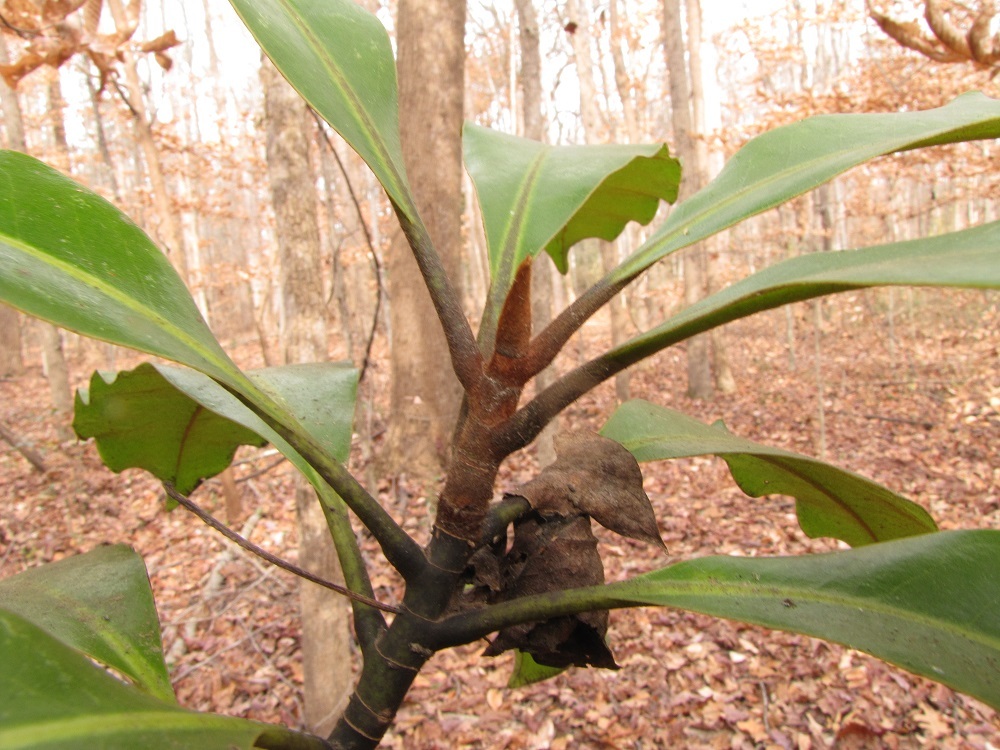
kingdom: Plantae
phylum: Tracheophyta
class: Magnoliopsida
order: Magnoliales
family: Magnoliaceae
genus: Magnolia
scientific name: Magnolia grandiflora
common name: Southern magnolia
